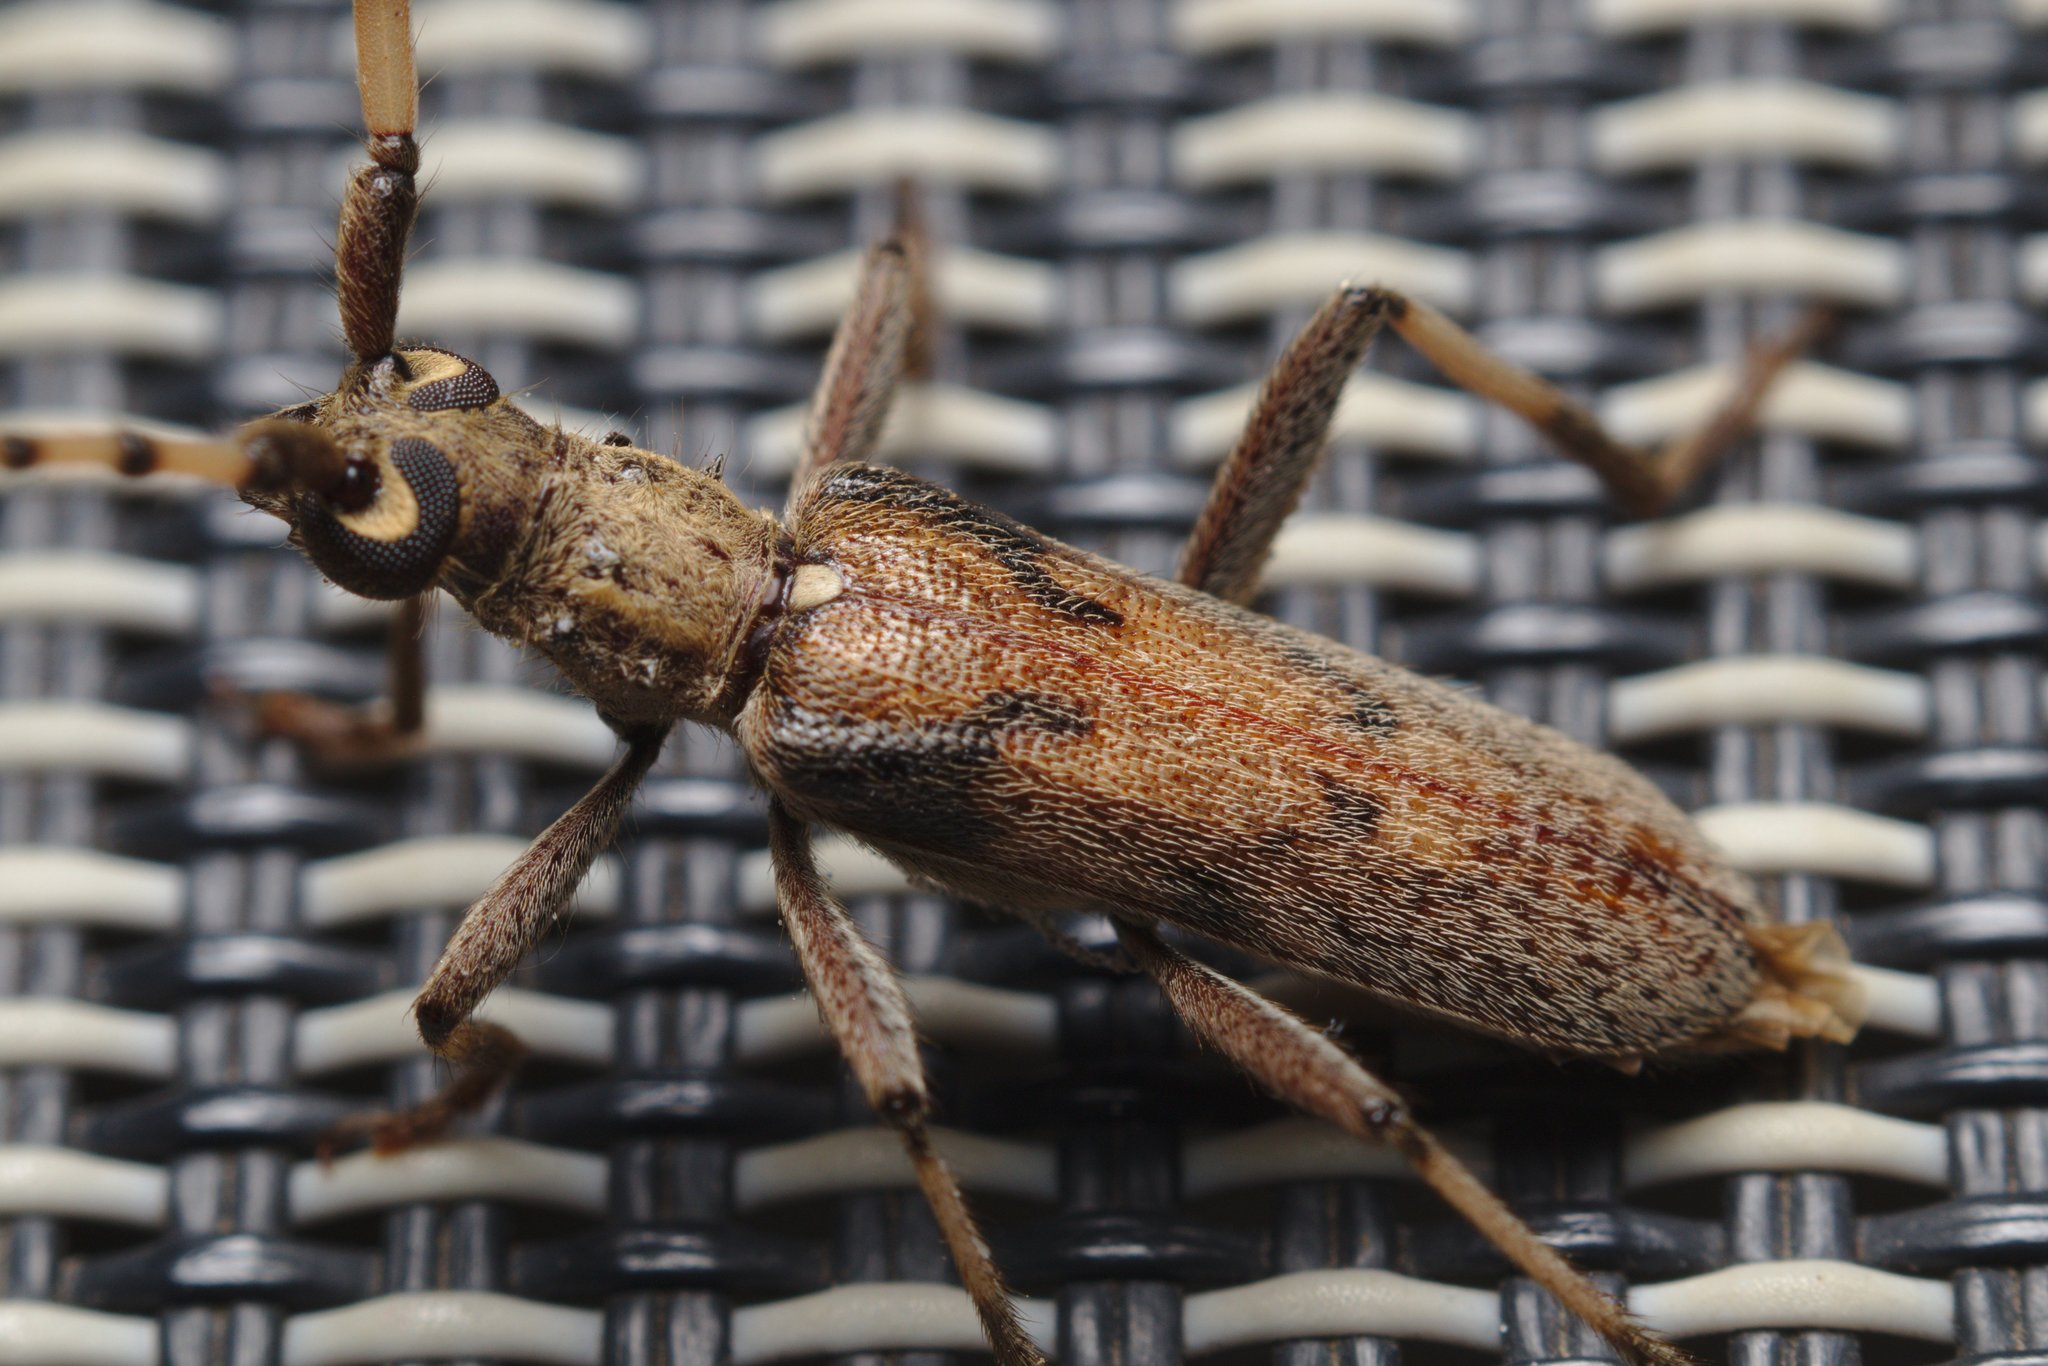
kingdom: Animalia
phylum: Arthropoda
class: Insecta
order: Coleoptera
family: Cerambycidae
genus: Didymocantha
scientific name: Didymocantha obliqua
